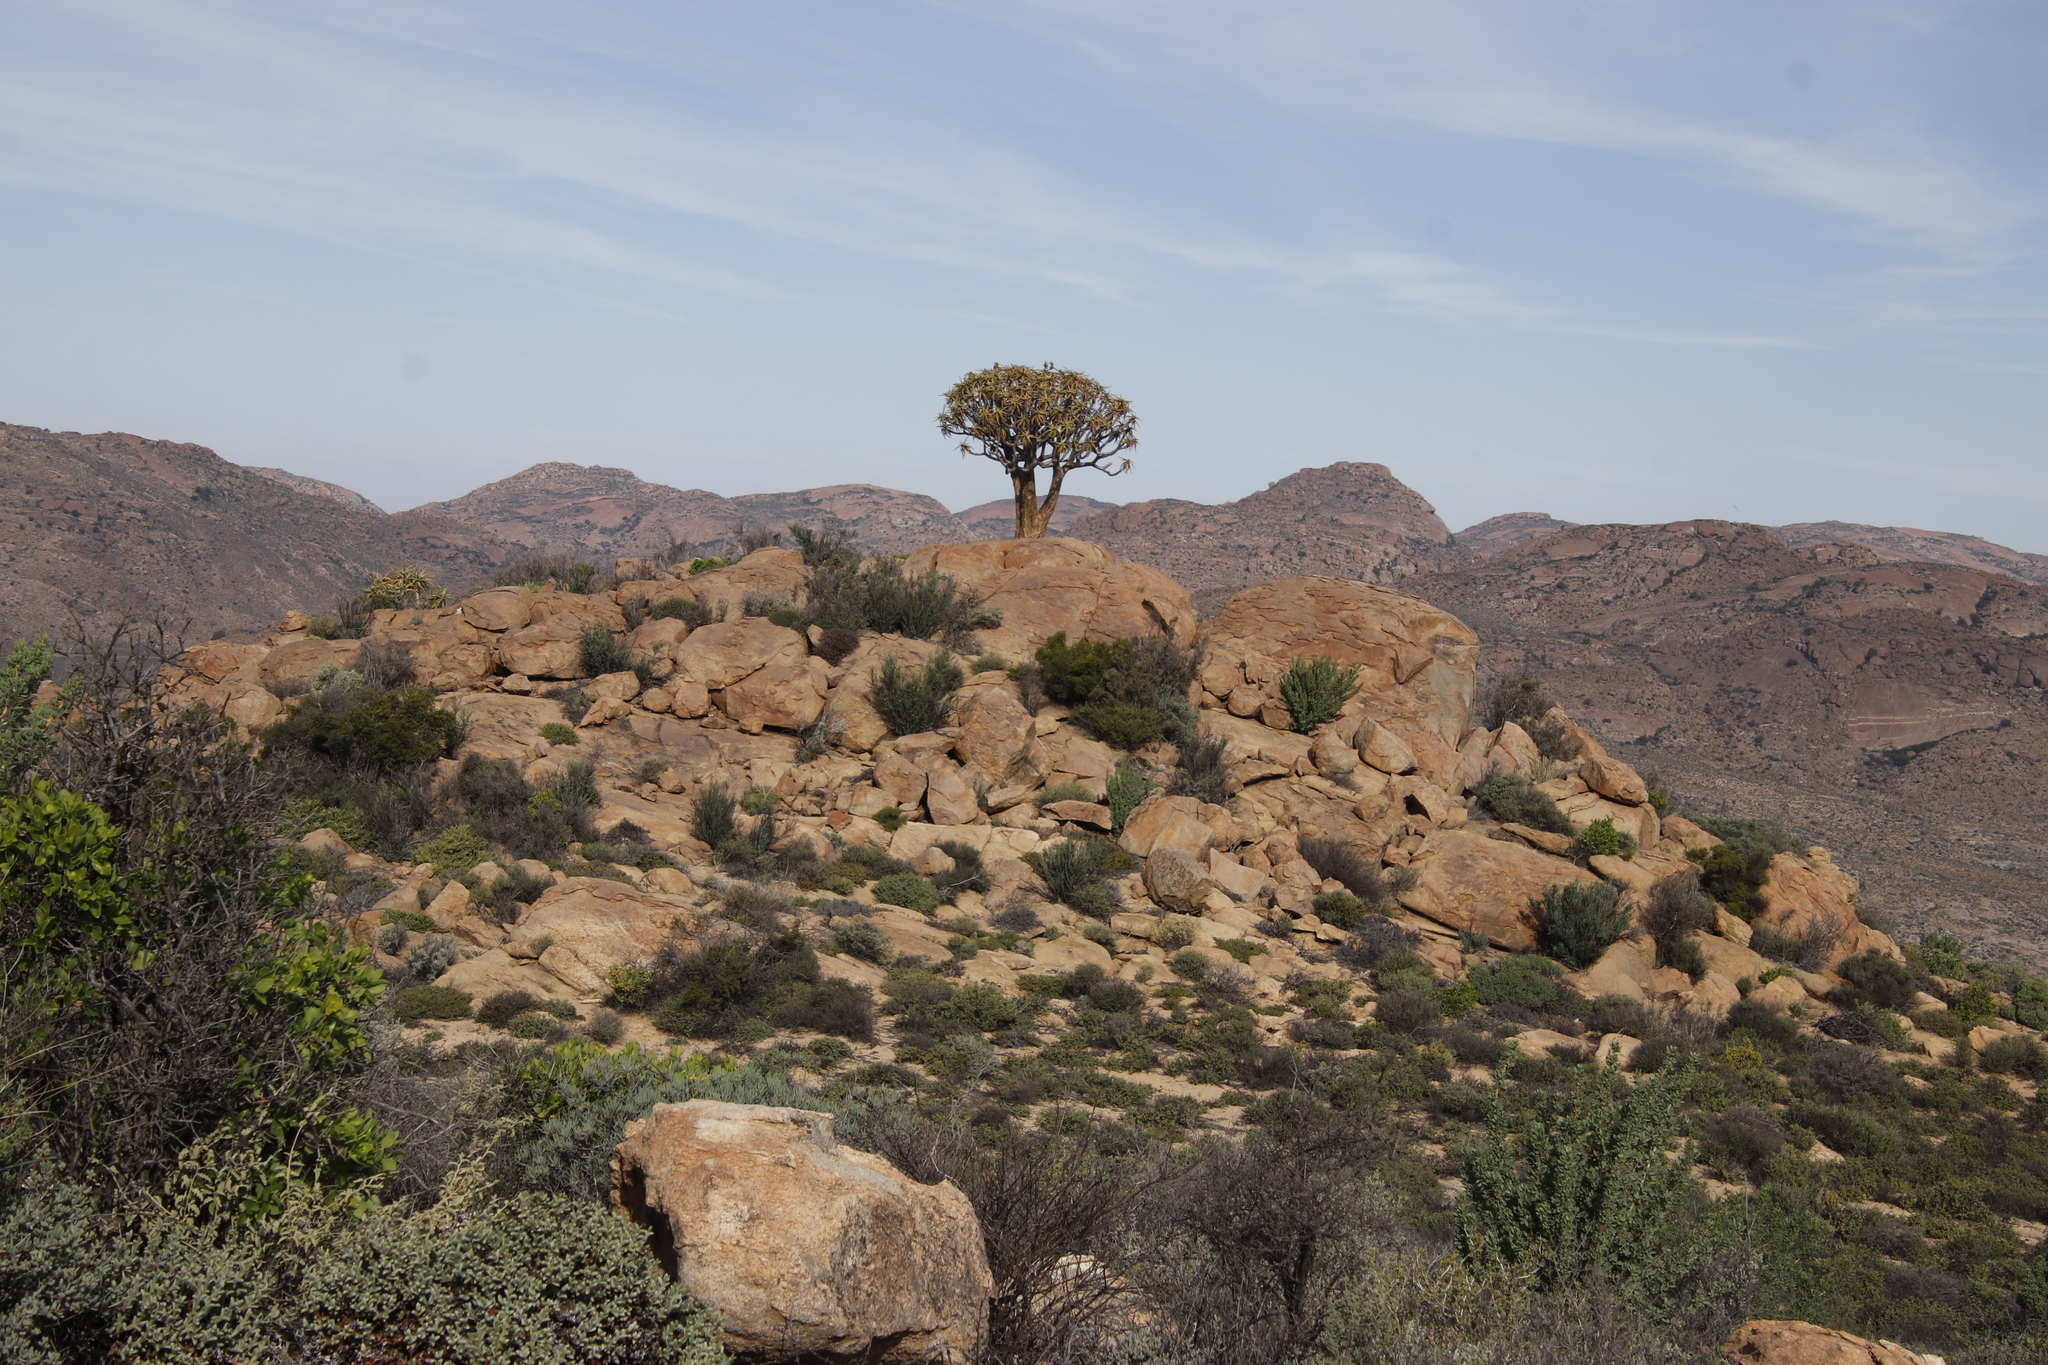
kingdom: Plantae
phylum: Tracheophyta
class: Liliopsida
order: Asparagales
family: Asphodelaceae
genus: Aloidendron
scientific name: Aloidendron dichotomum
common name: Quiver tree
